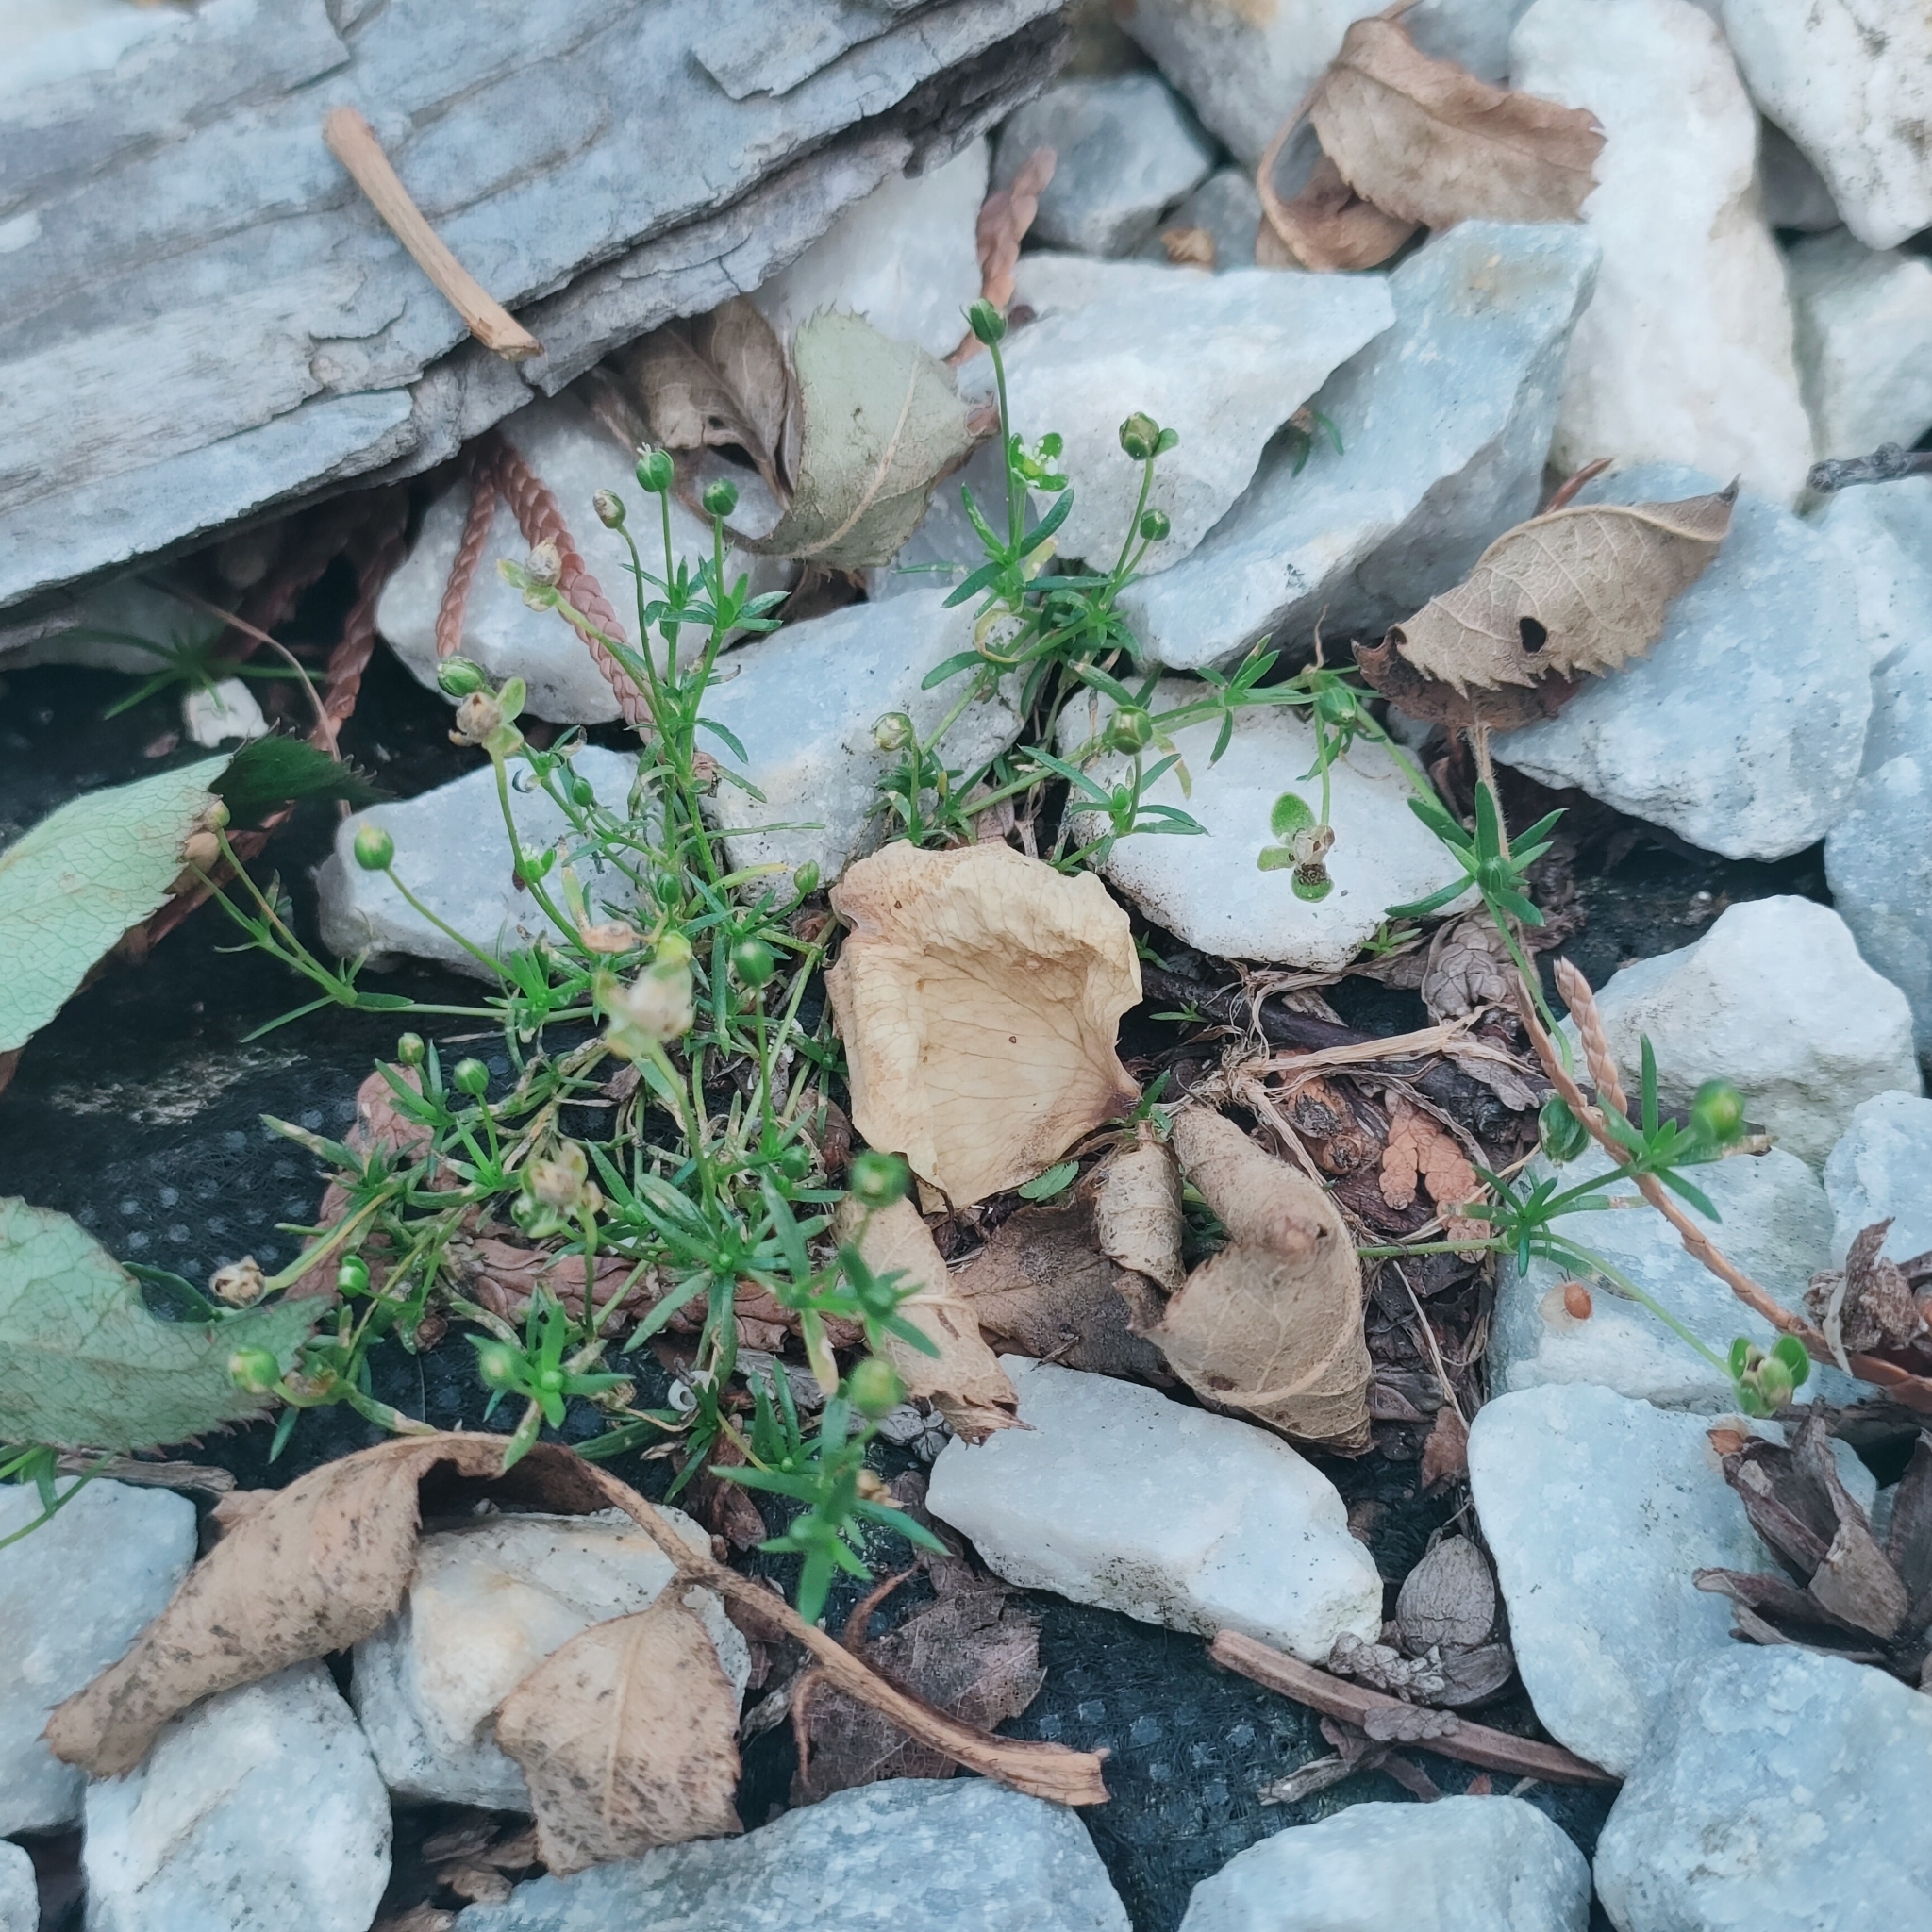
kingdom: Plantae
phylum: Tracheophyta
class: Magnoliopsida
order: Caryophyllales
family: Caryophyllaceae
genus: Sagina
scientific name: Sagina procumbens
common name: Procumbent pearlwort
